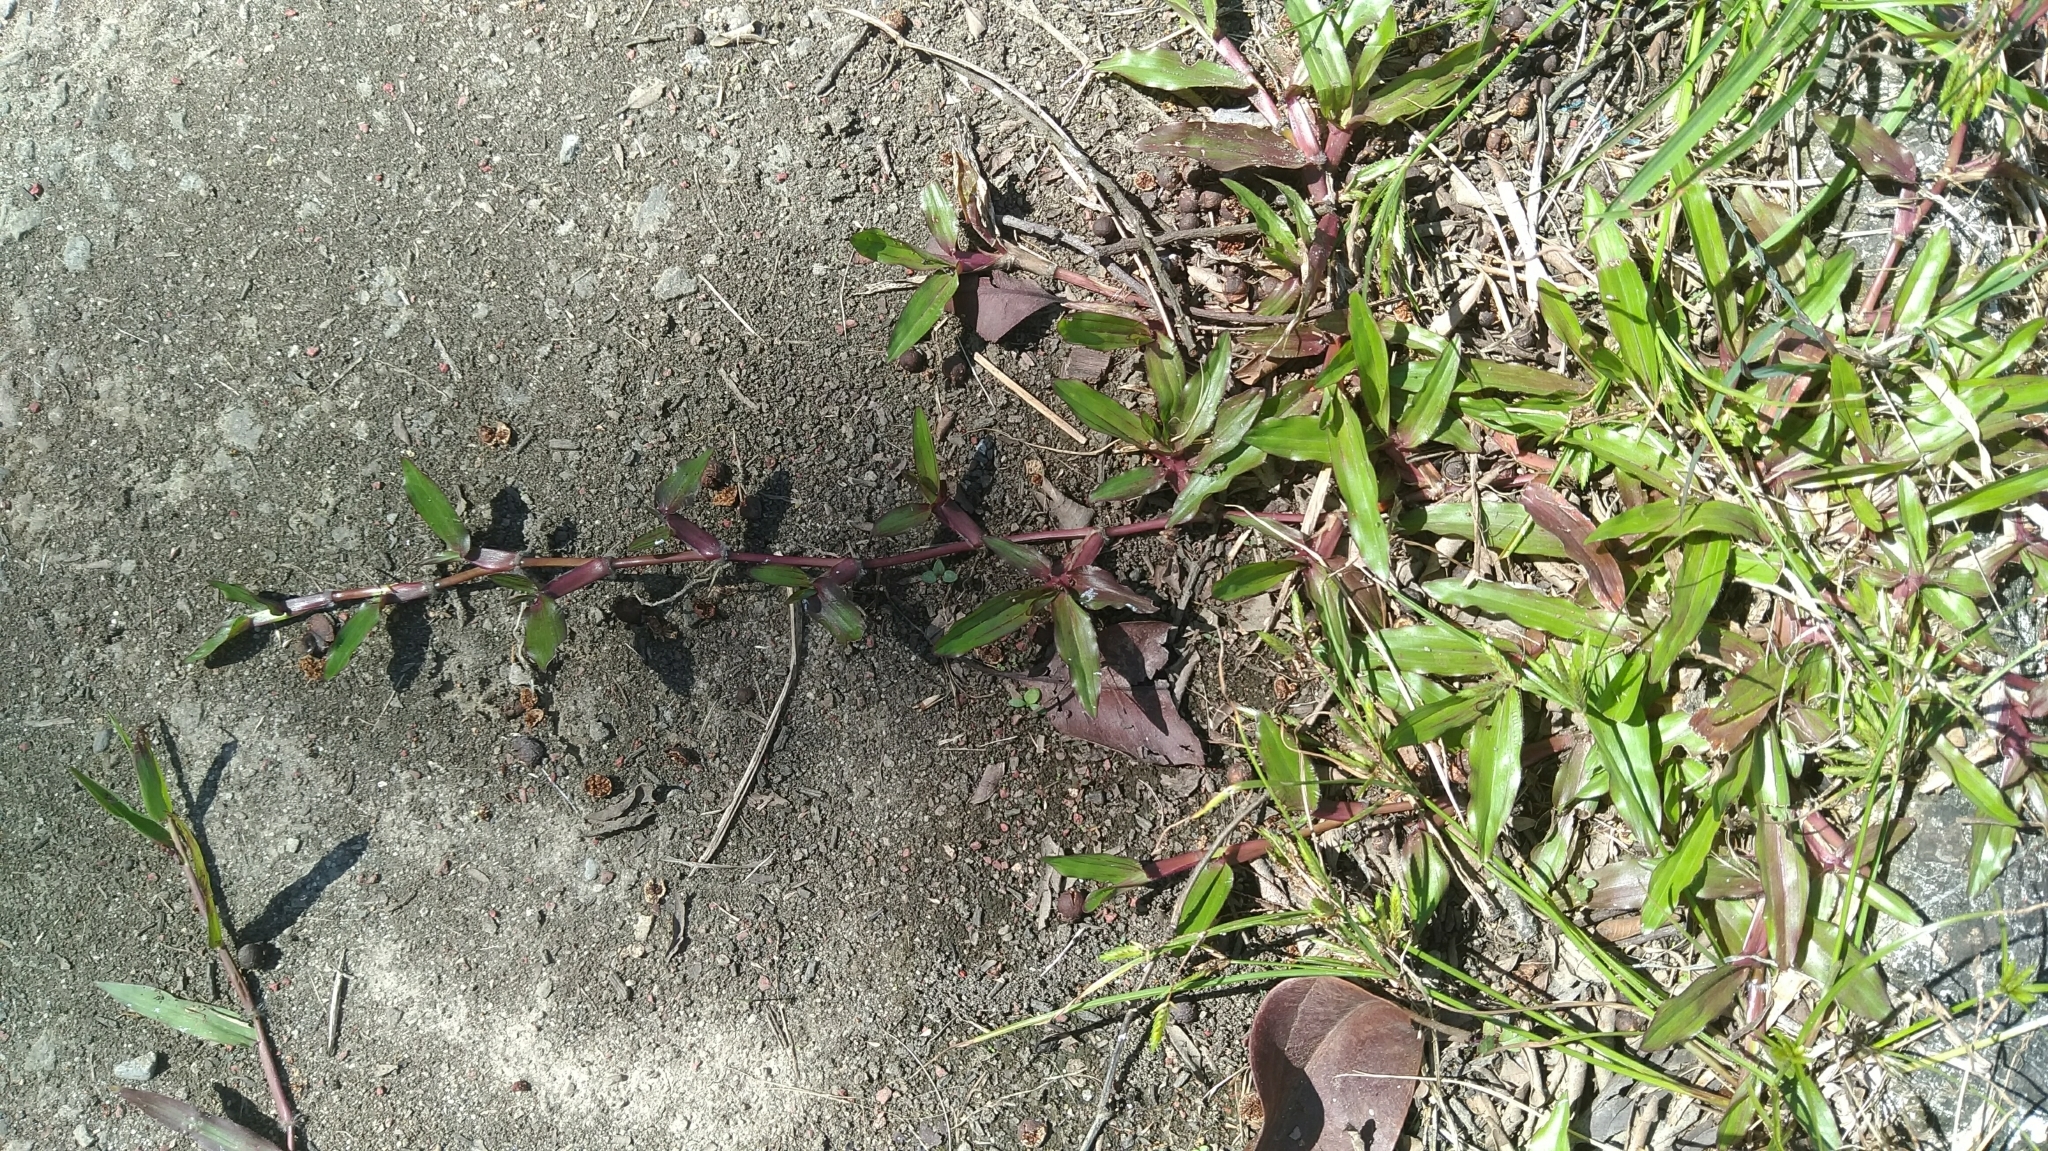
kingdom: Plantae
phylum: Tracheophyta
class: Liliopsida
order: Poales
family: Poaceae
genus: Axonopus
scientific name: Axonopus compressus
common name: American carpet grass
